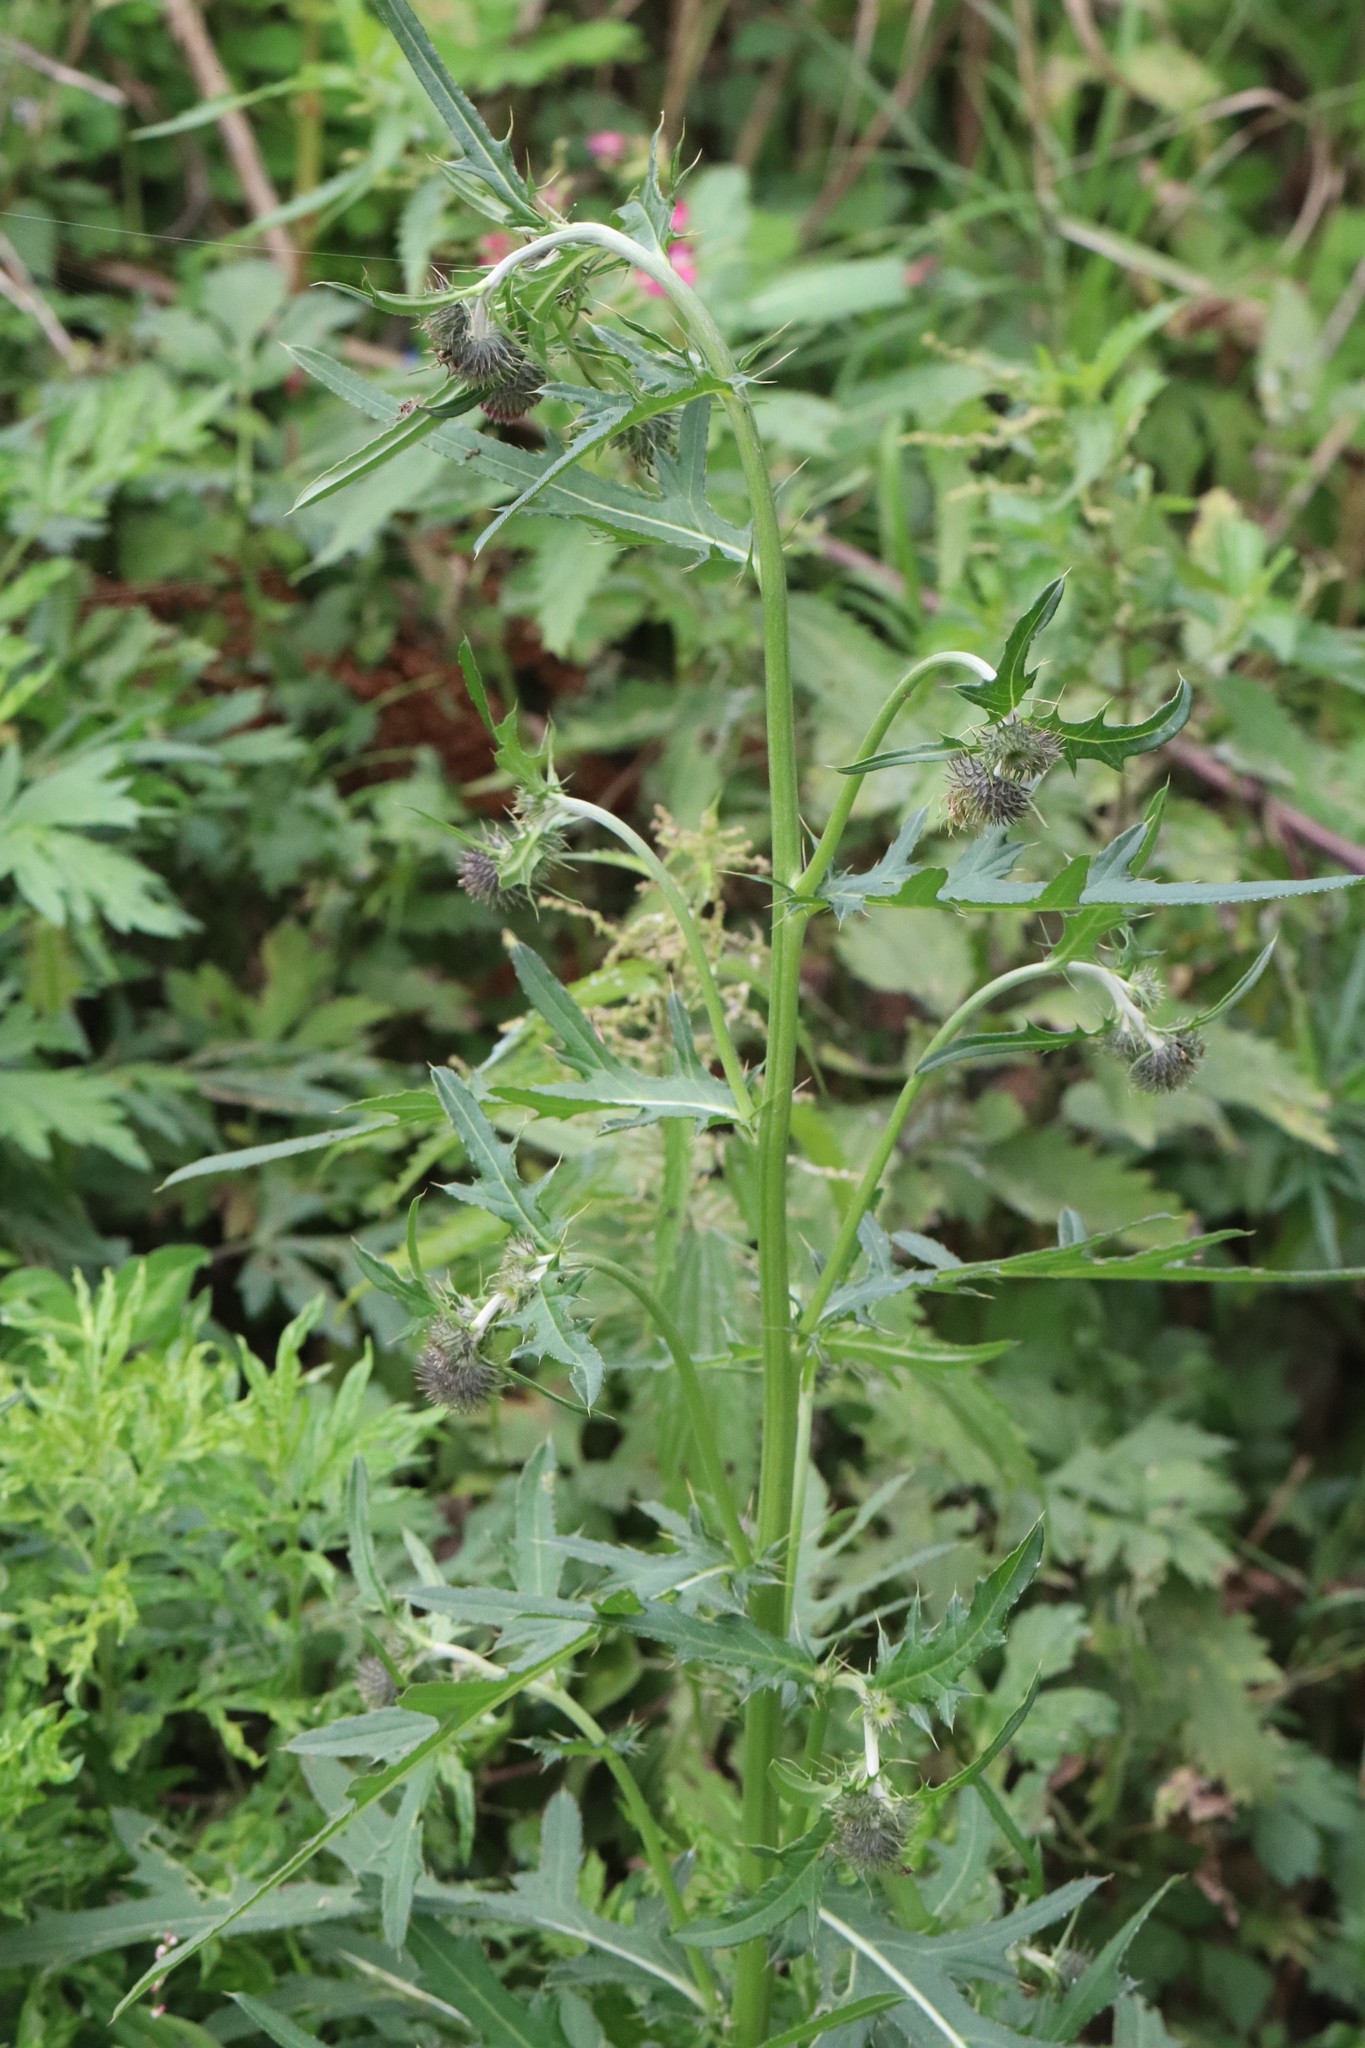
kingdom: Plantae
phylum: Tracheophyta
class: Magnoliopsida
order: Asterales
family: Asteraceae
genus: Cirsium
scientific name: Cirsium pendulum
